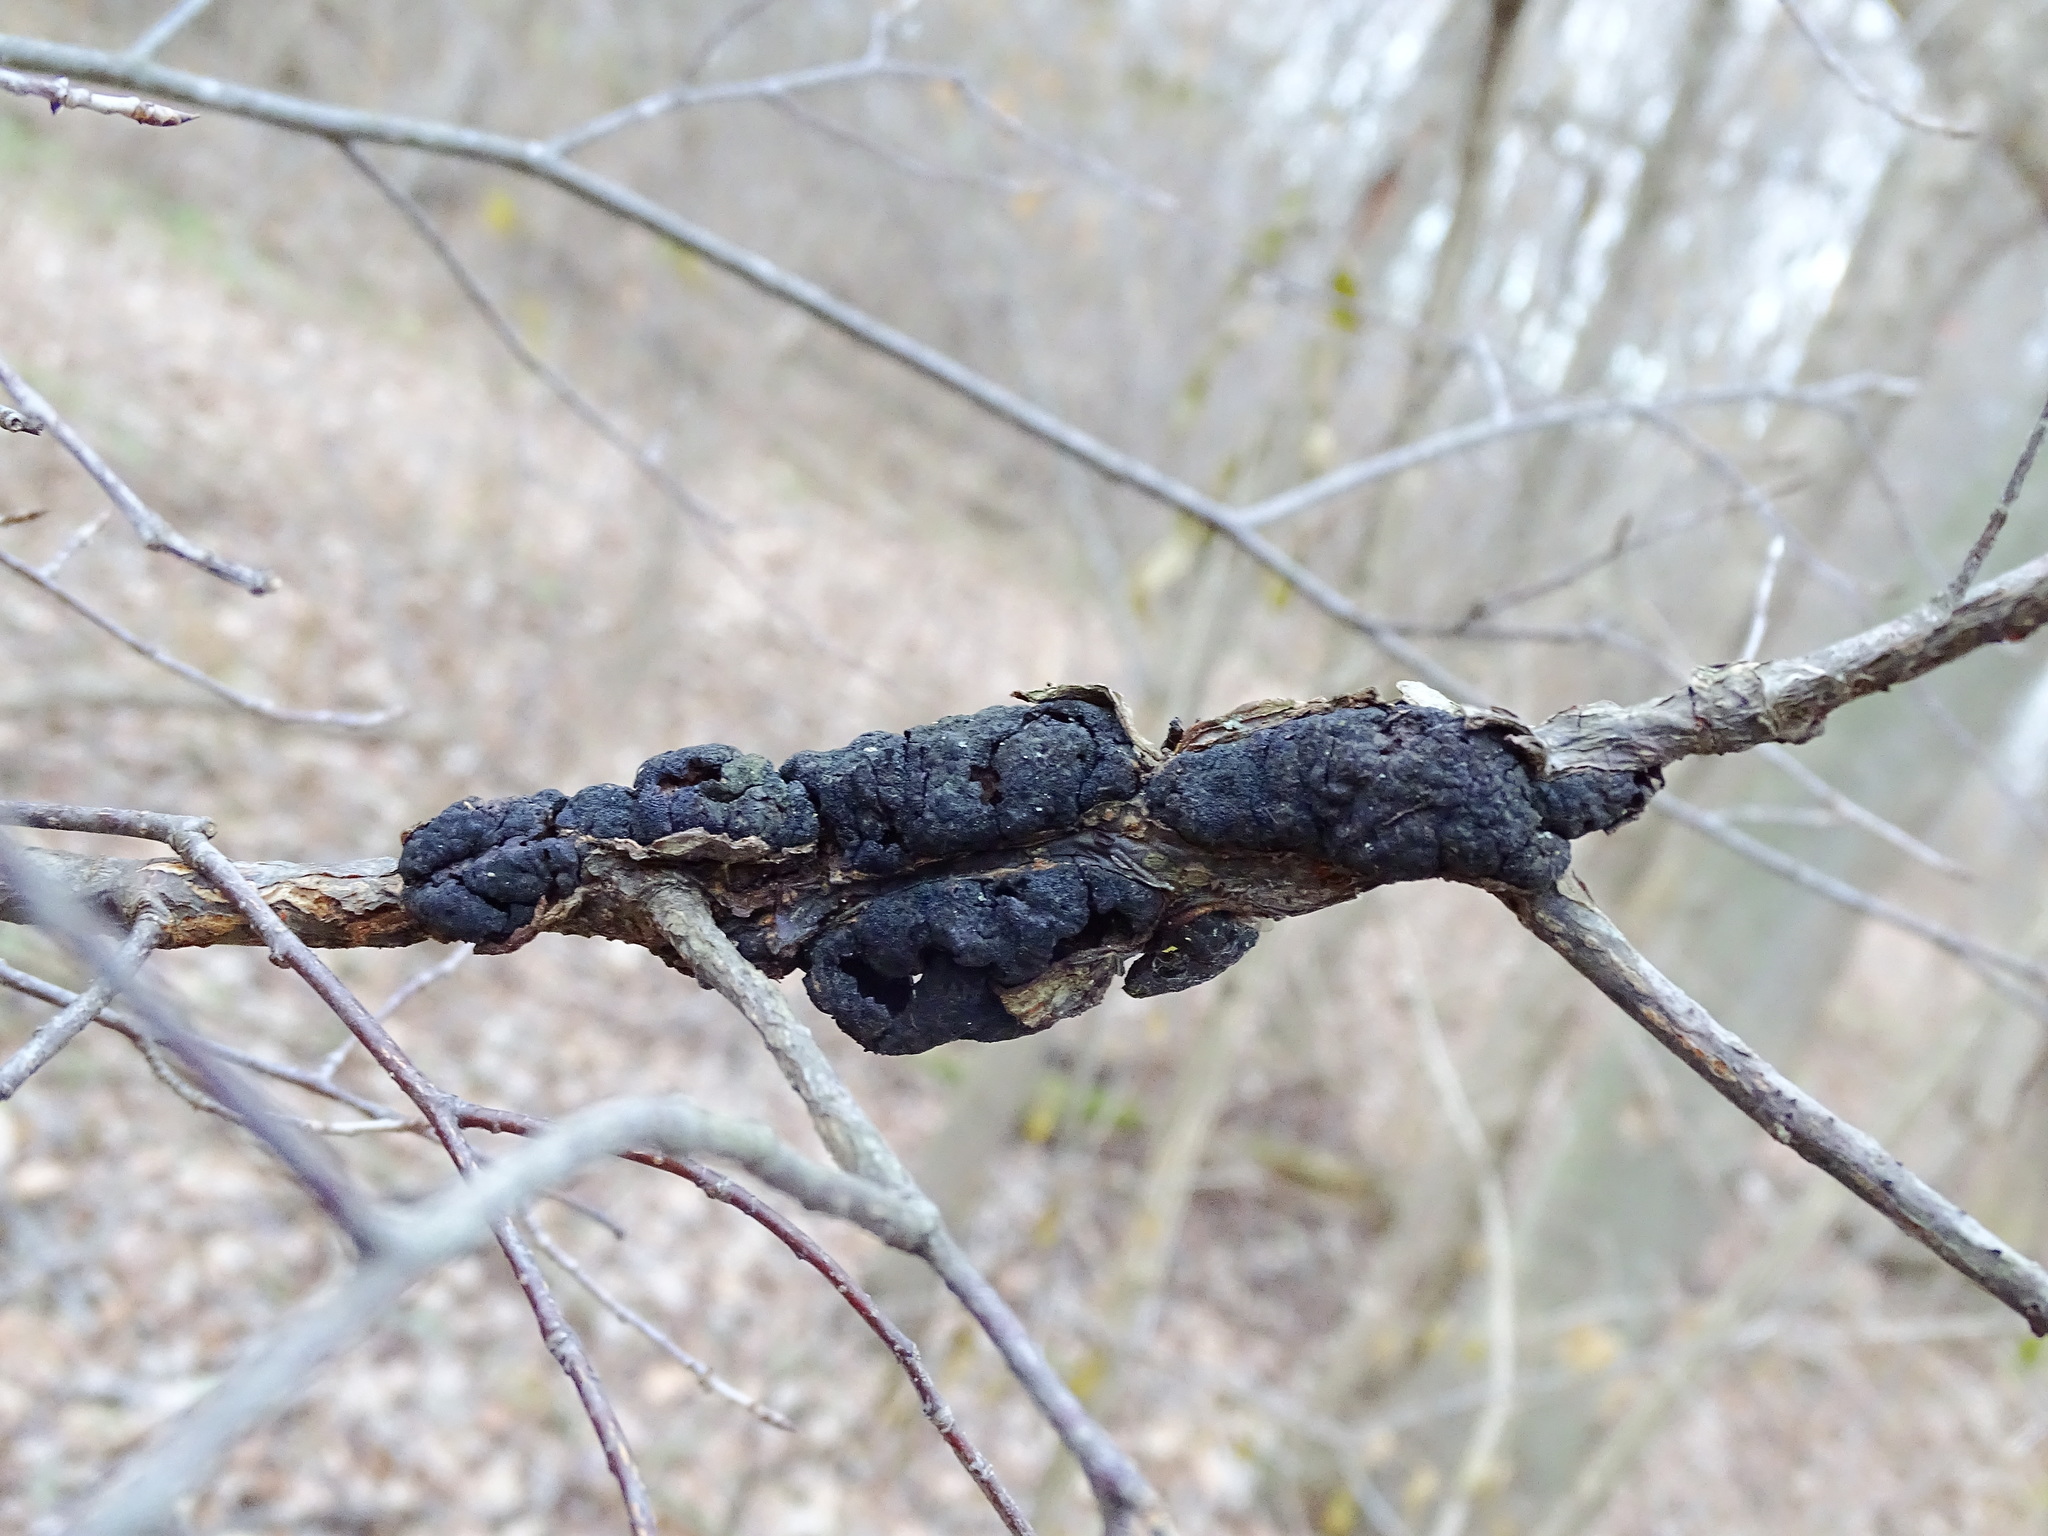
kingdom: Fungi
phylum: Ascomycota
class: Dothideomycetes
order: Venturiales
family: Venturiaceae
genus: Apiosporina
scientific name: Apiosporina morbosa
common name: Black knot
